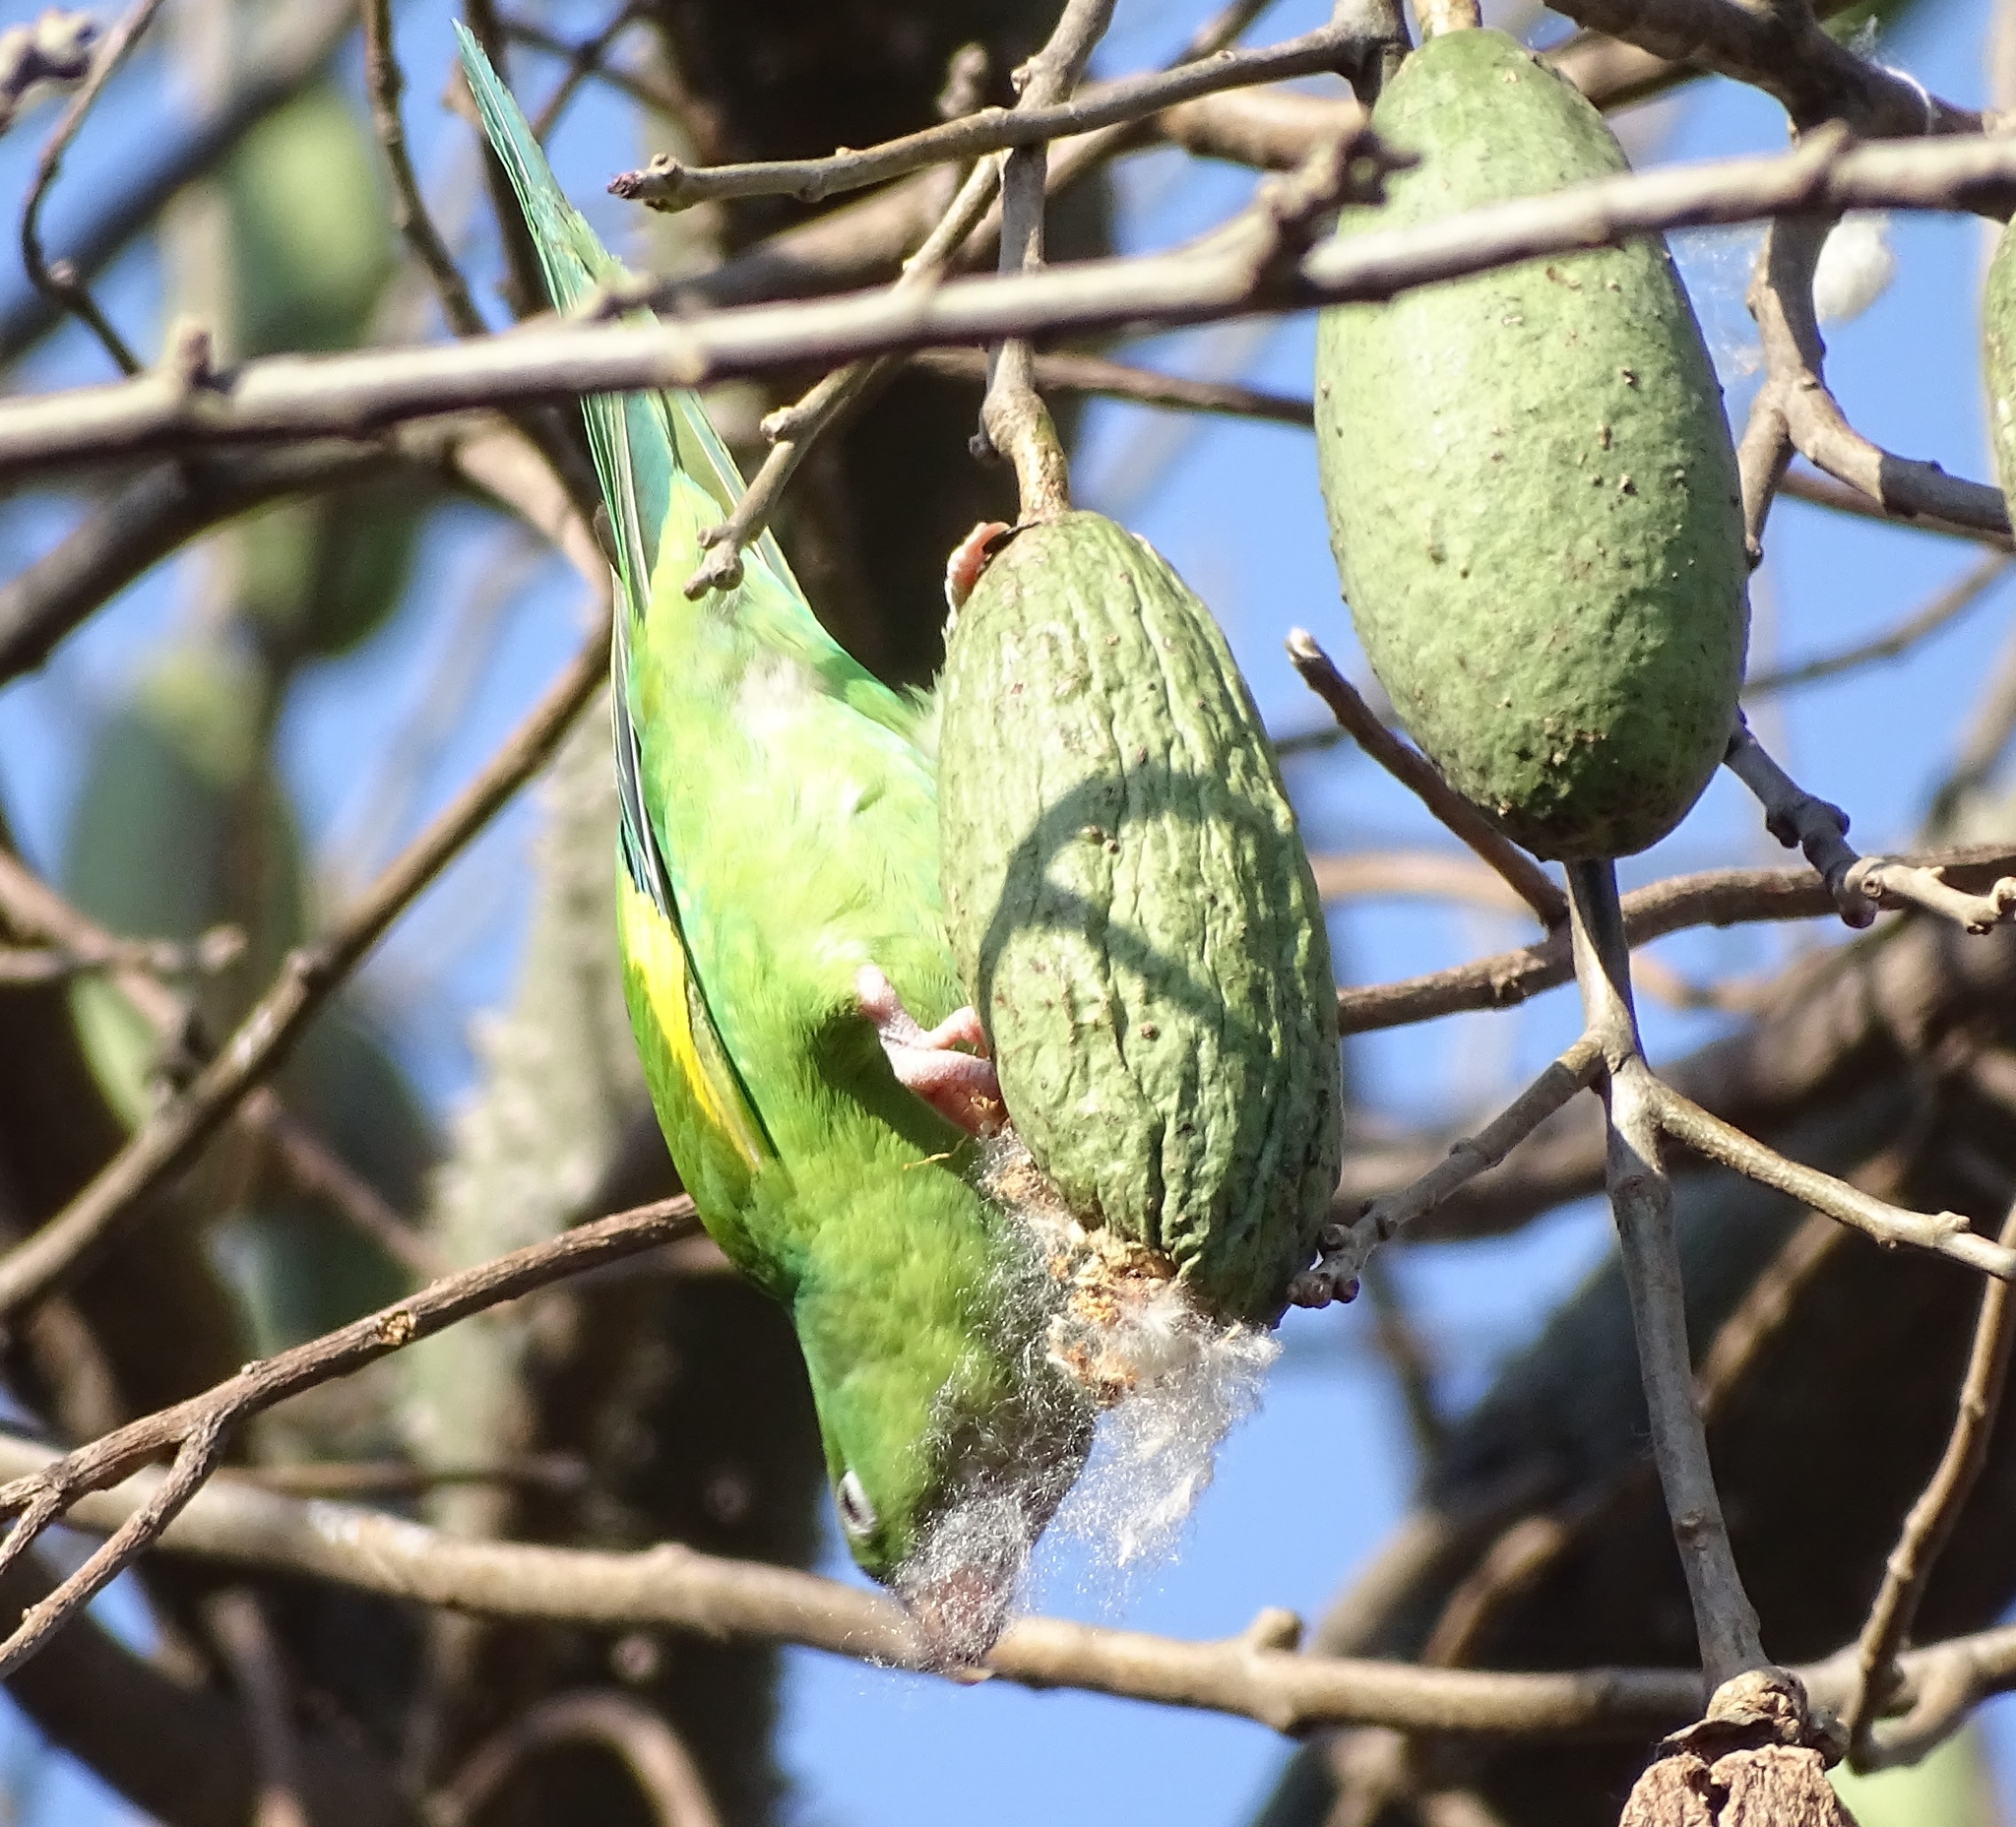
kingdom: Animalia
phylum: Chordata
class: Aves
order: Psittaciformes
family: Psittacidae
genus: Brotogeris
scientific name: Brotogeris chiriri
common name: Yellow-chevroned parakeet
